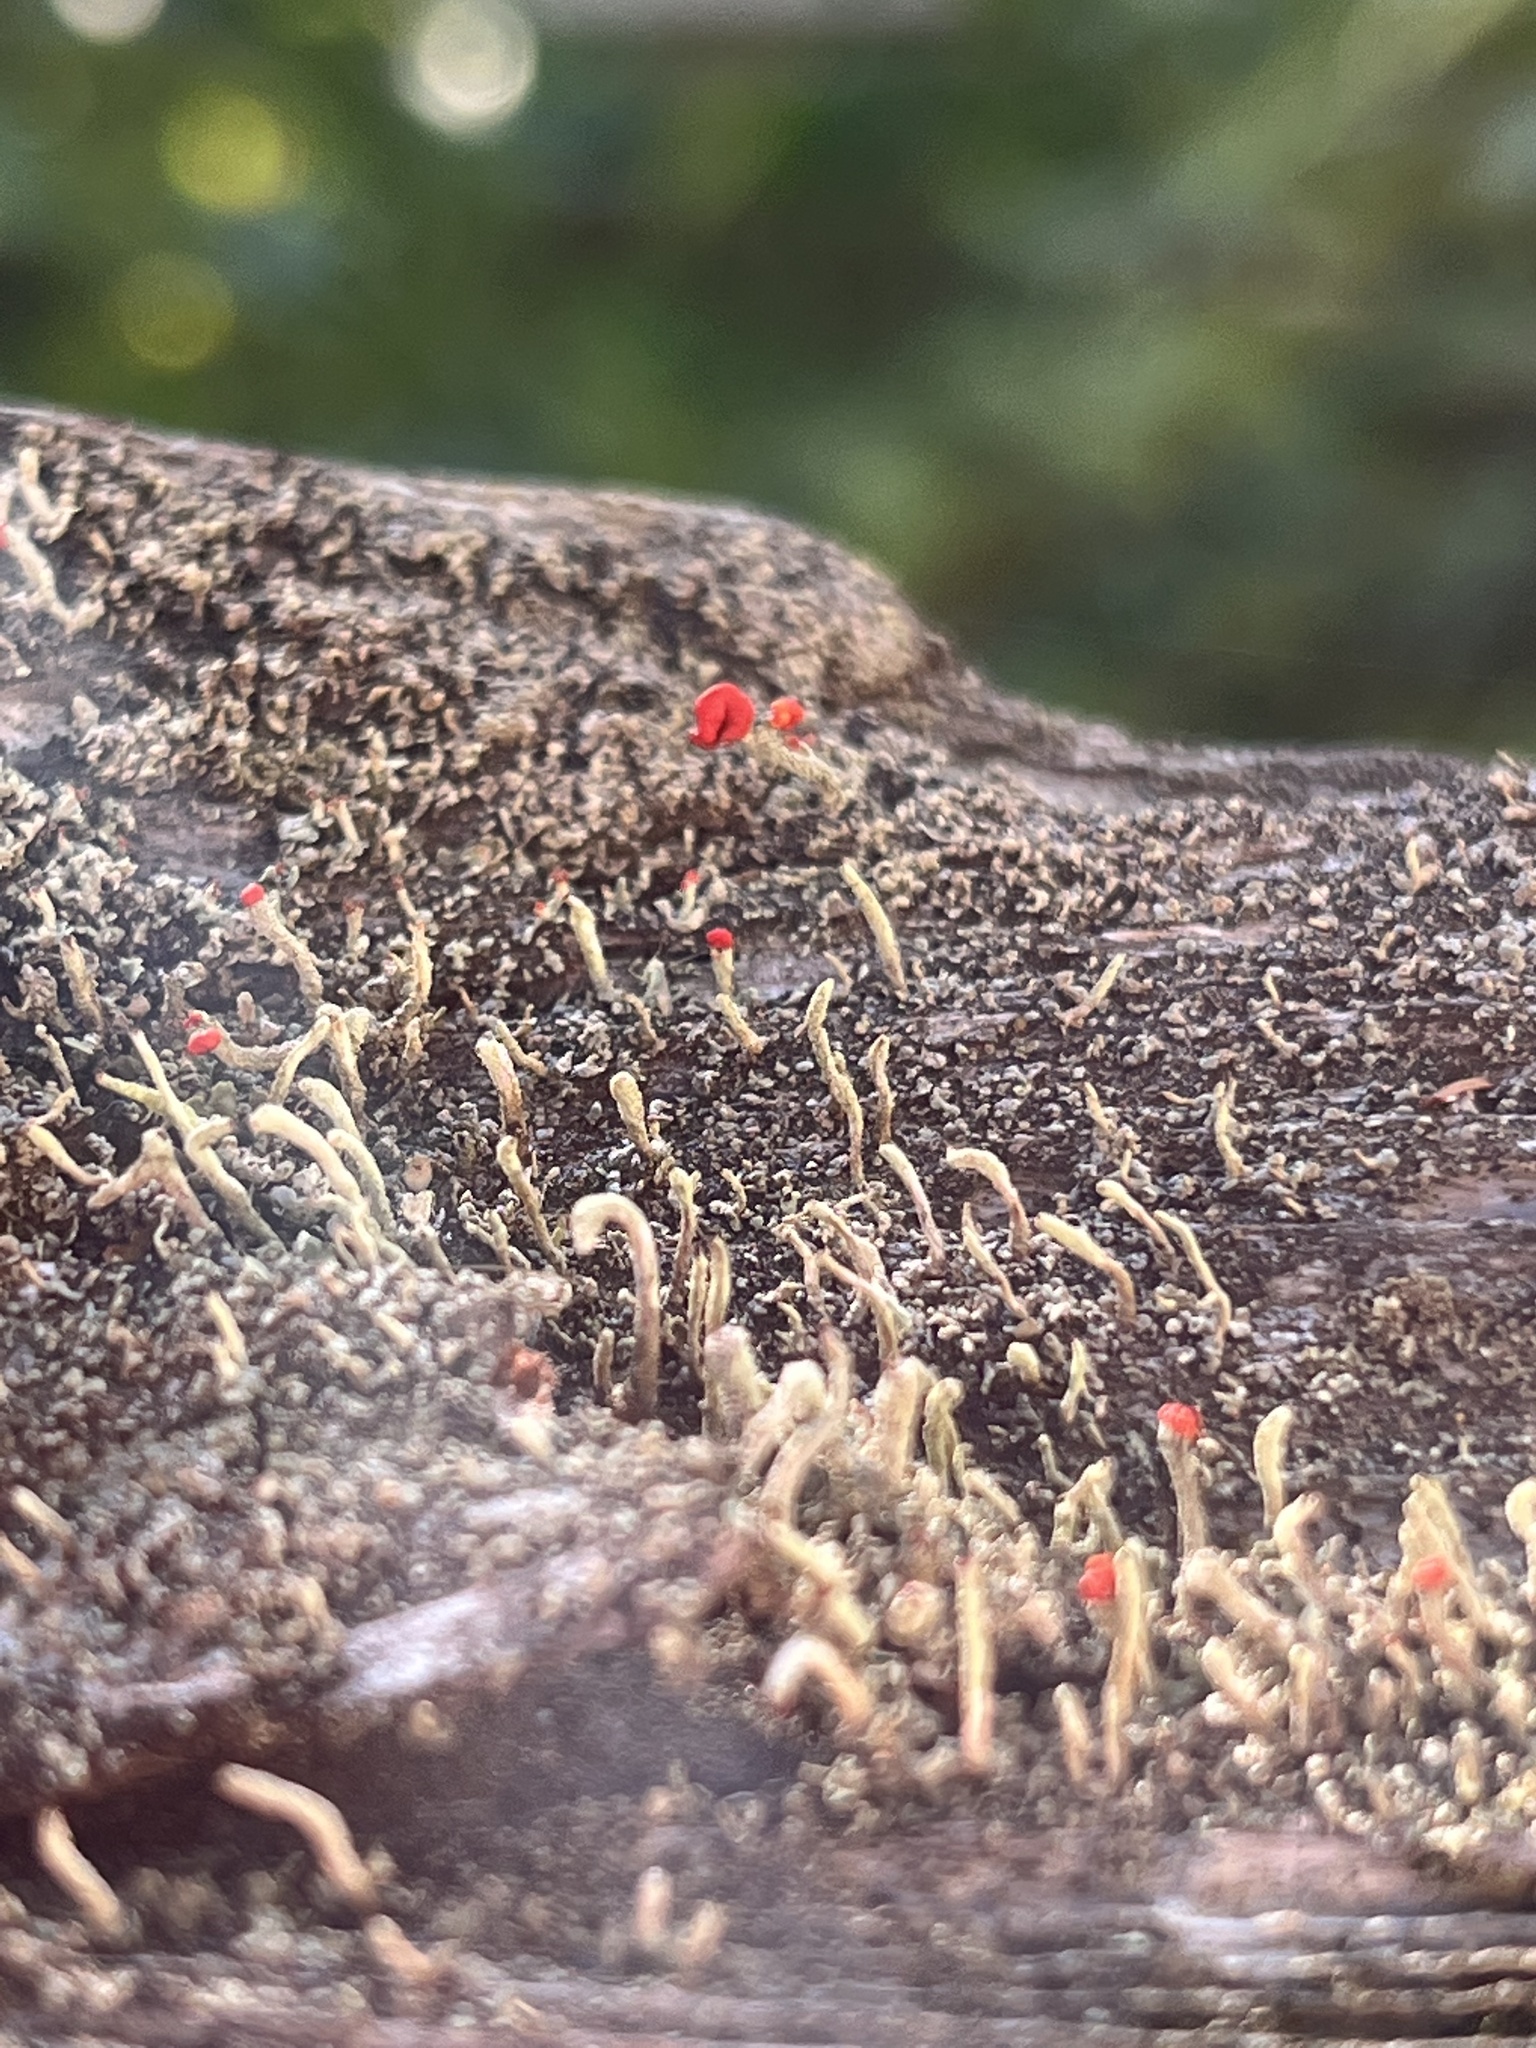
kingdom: Fungi
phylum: Ascomycota
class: Lecanoromycetes
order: Lecanorales
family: Cladoniaceae
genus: Cladonia
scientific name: Cladonia cristatella
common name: British soldier lichen
